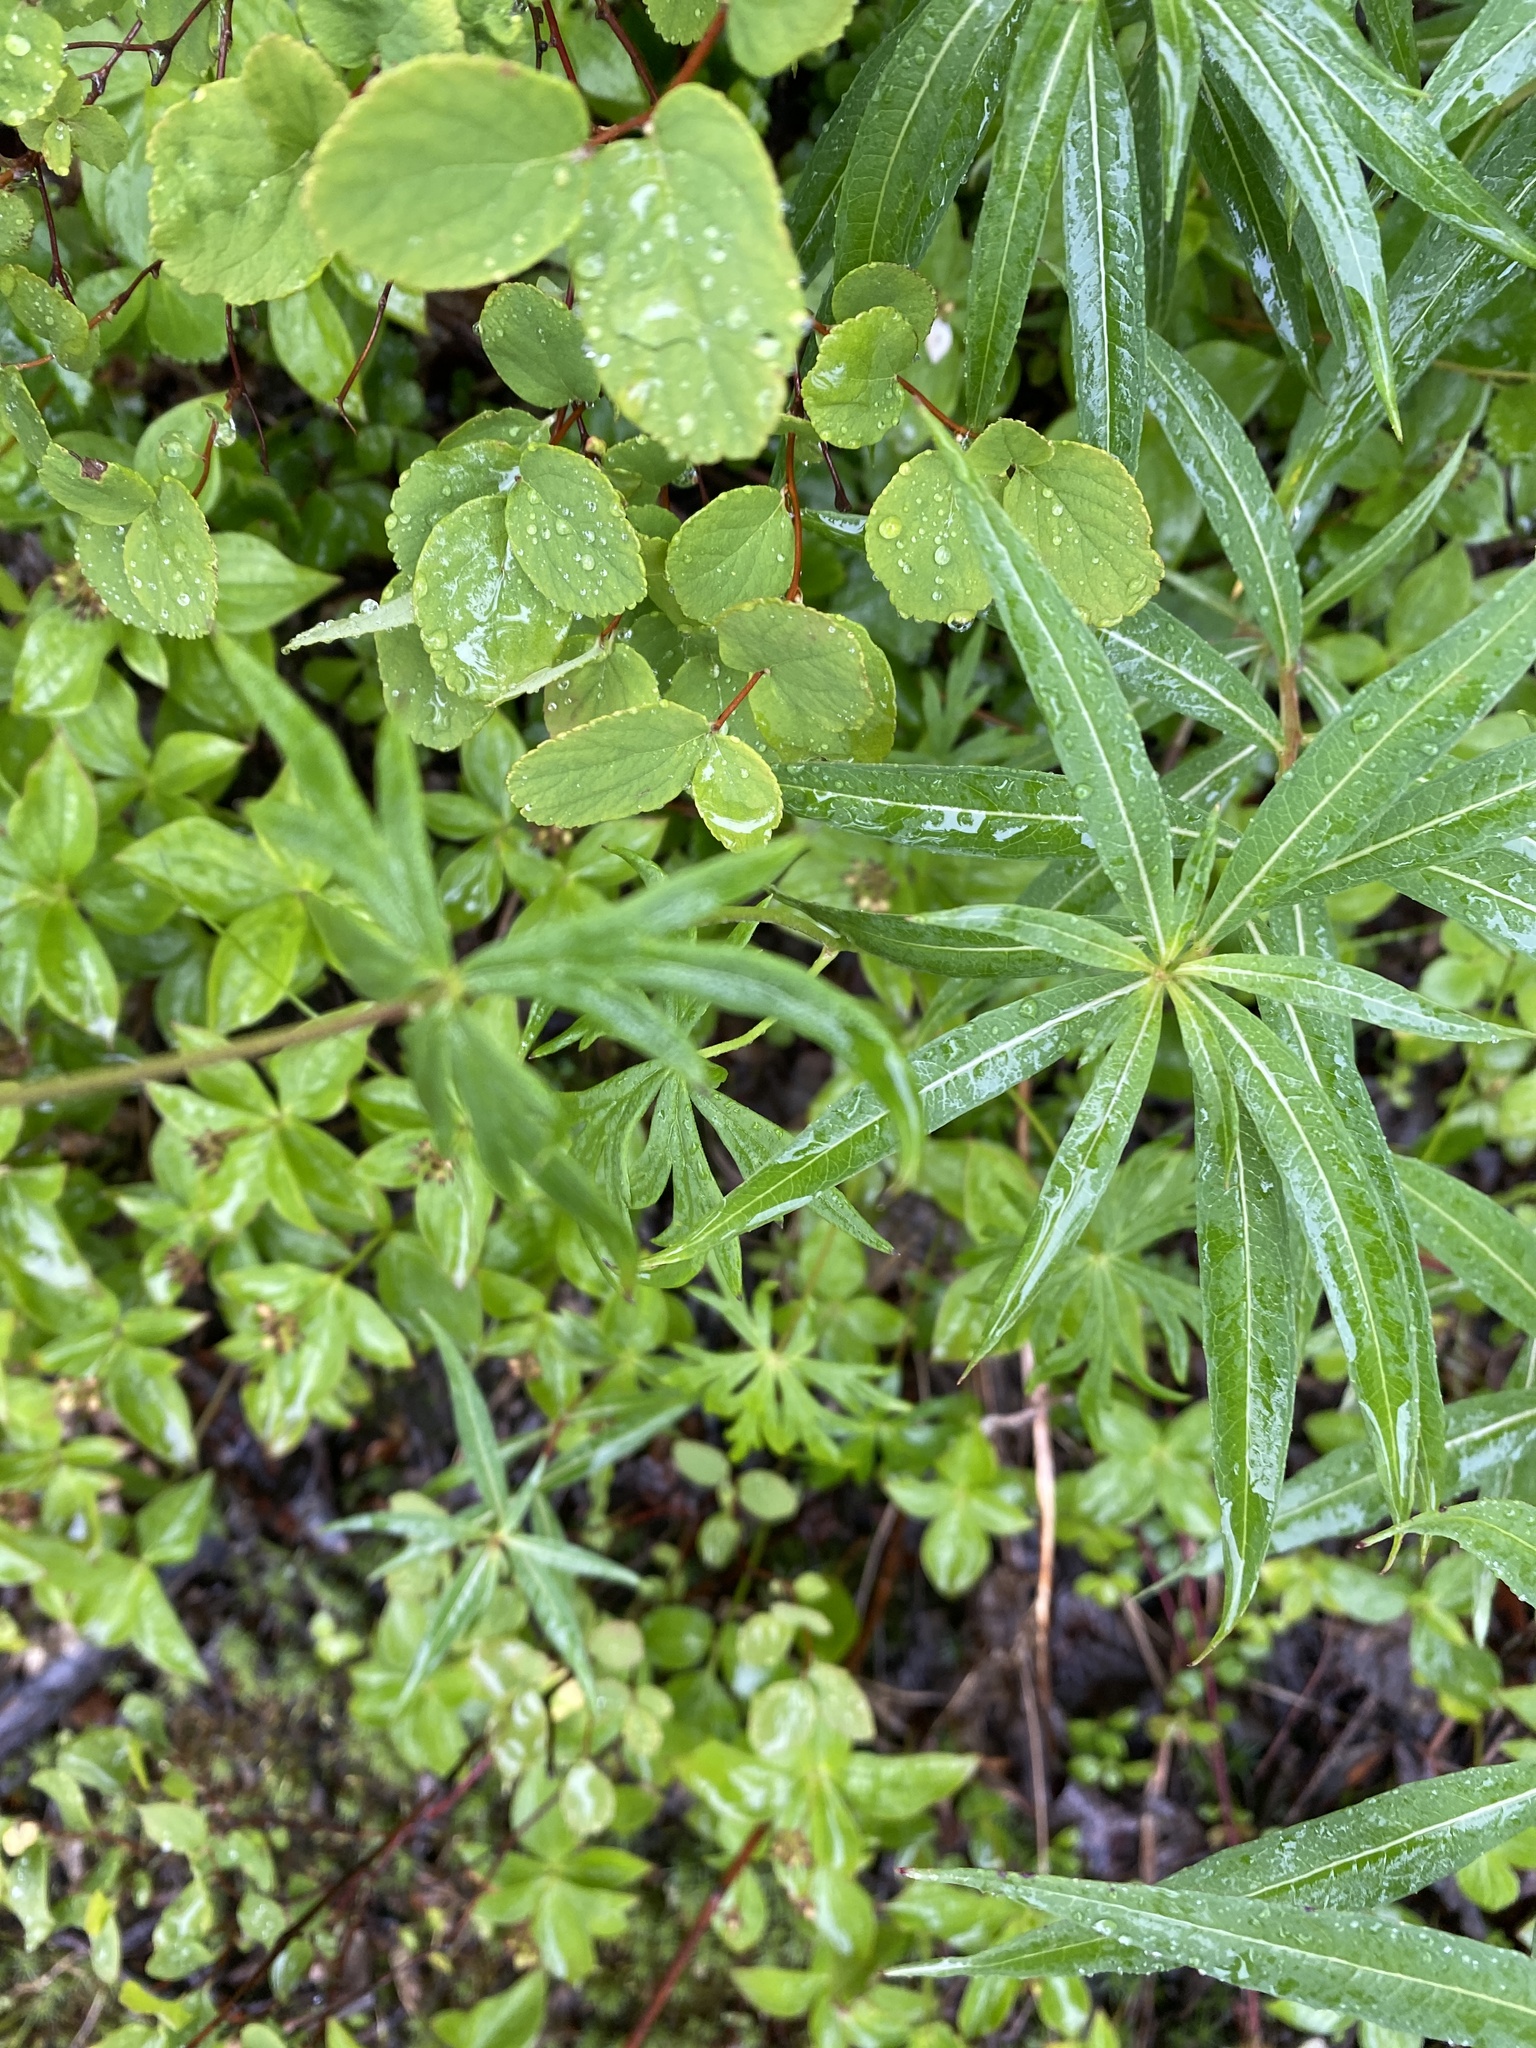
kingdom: Plantae
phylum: Tracheophyta
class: Magnoliopsida
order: Ranunculales
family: Ranunculaceae
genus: Aconitum
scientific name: Aconitum delphiniifolium
